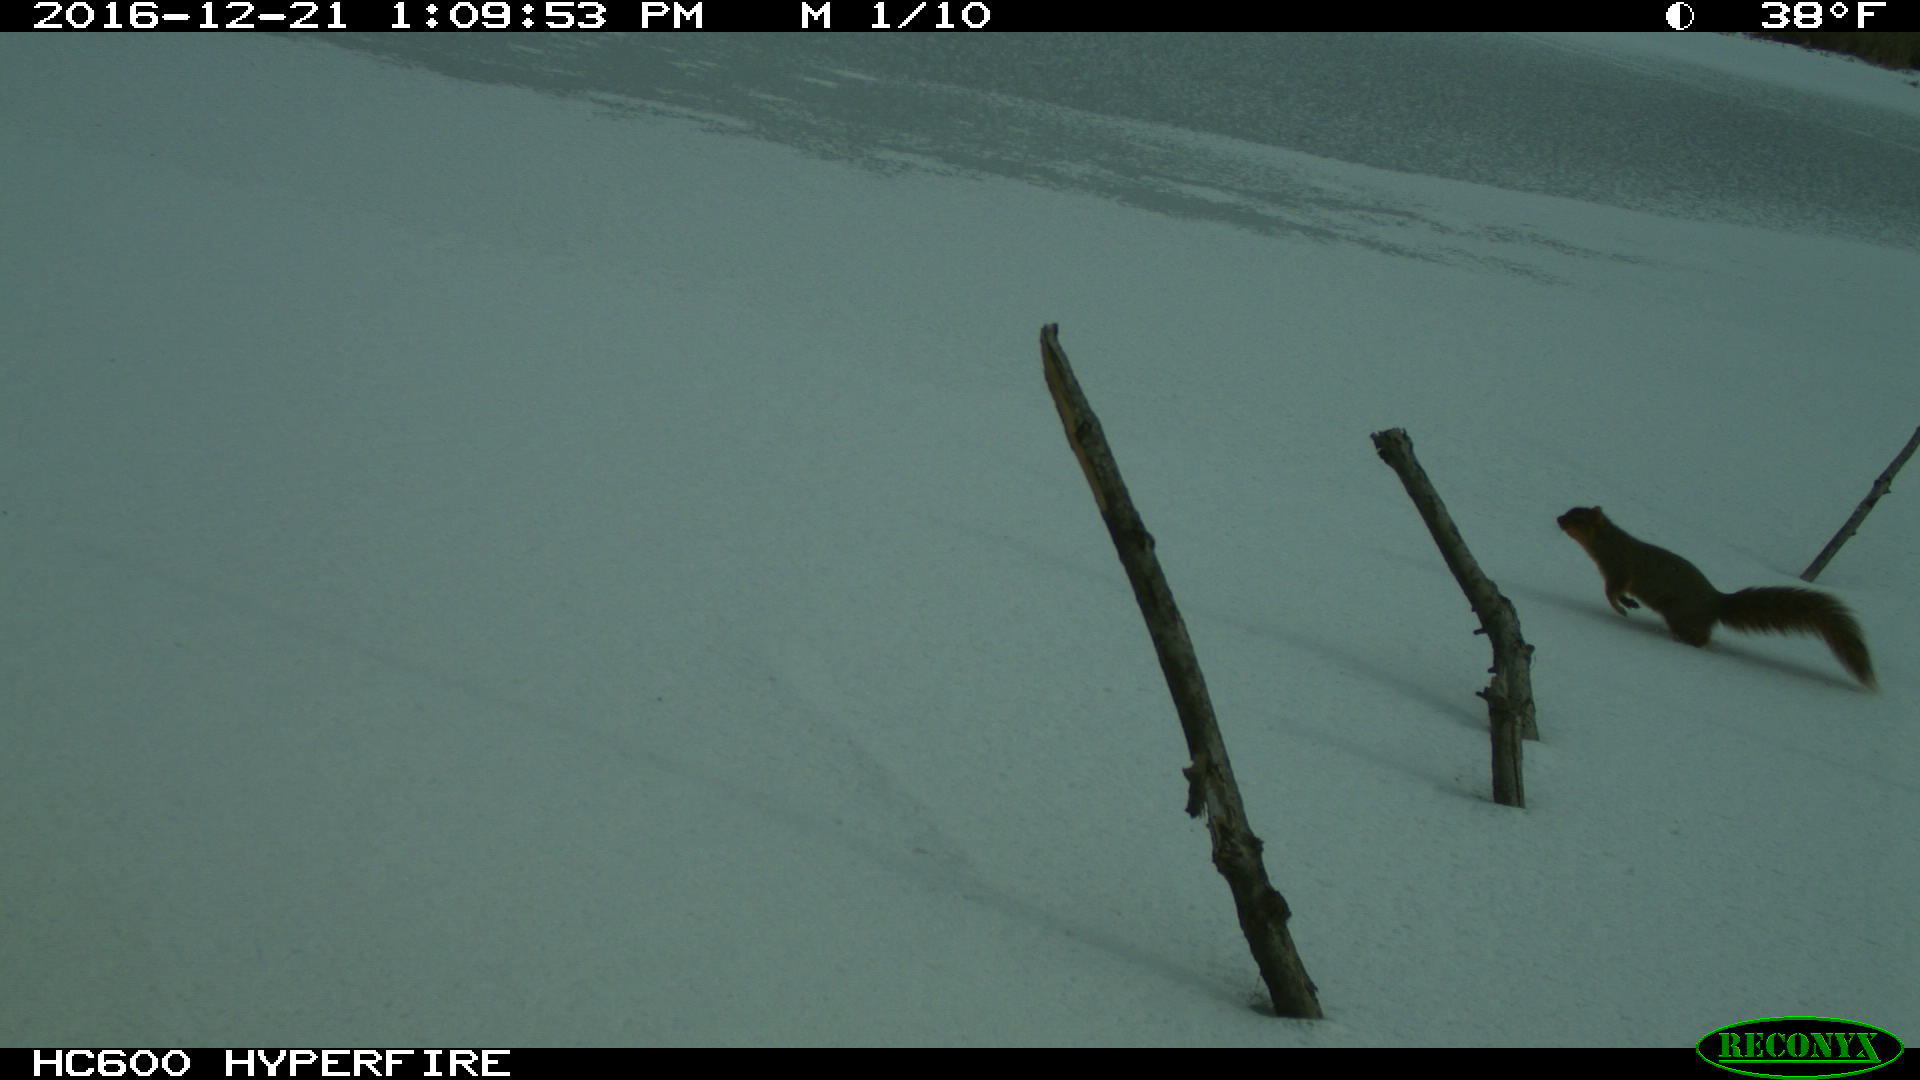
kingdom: Animalia
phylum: Chordata
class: Mammalia
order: Rodentia
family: Sciuridae
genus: Sciurus
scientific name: Sciurus niger
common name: Fox squirrel
